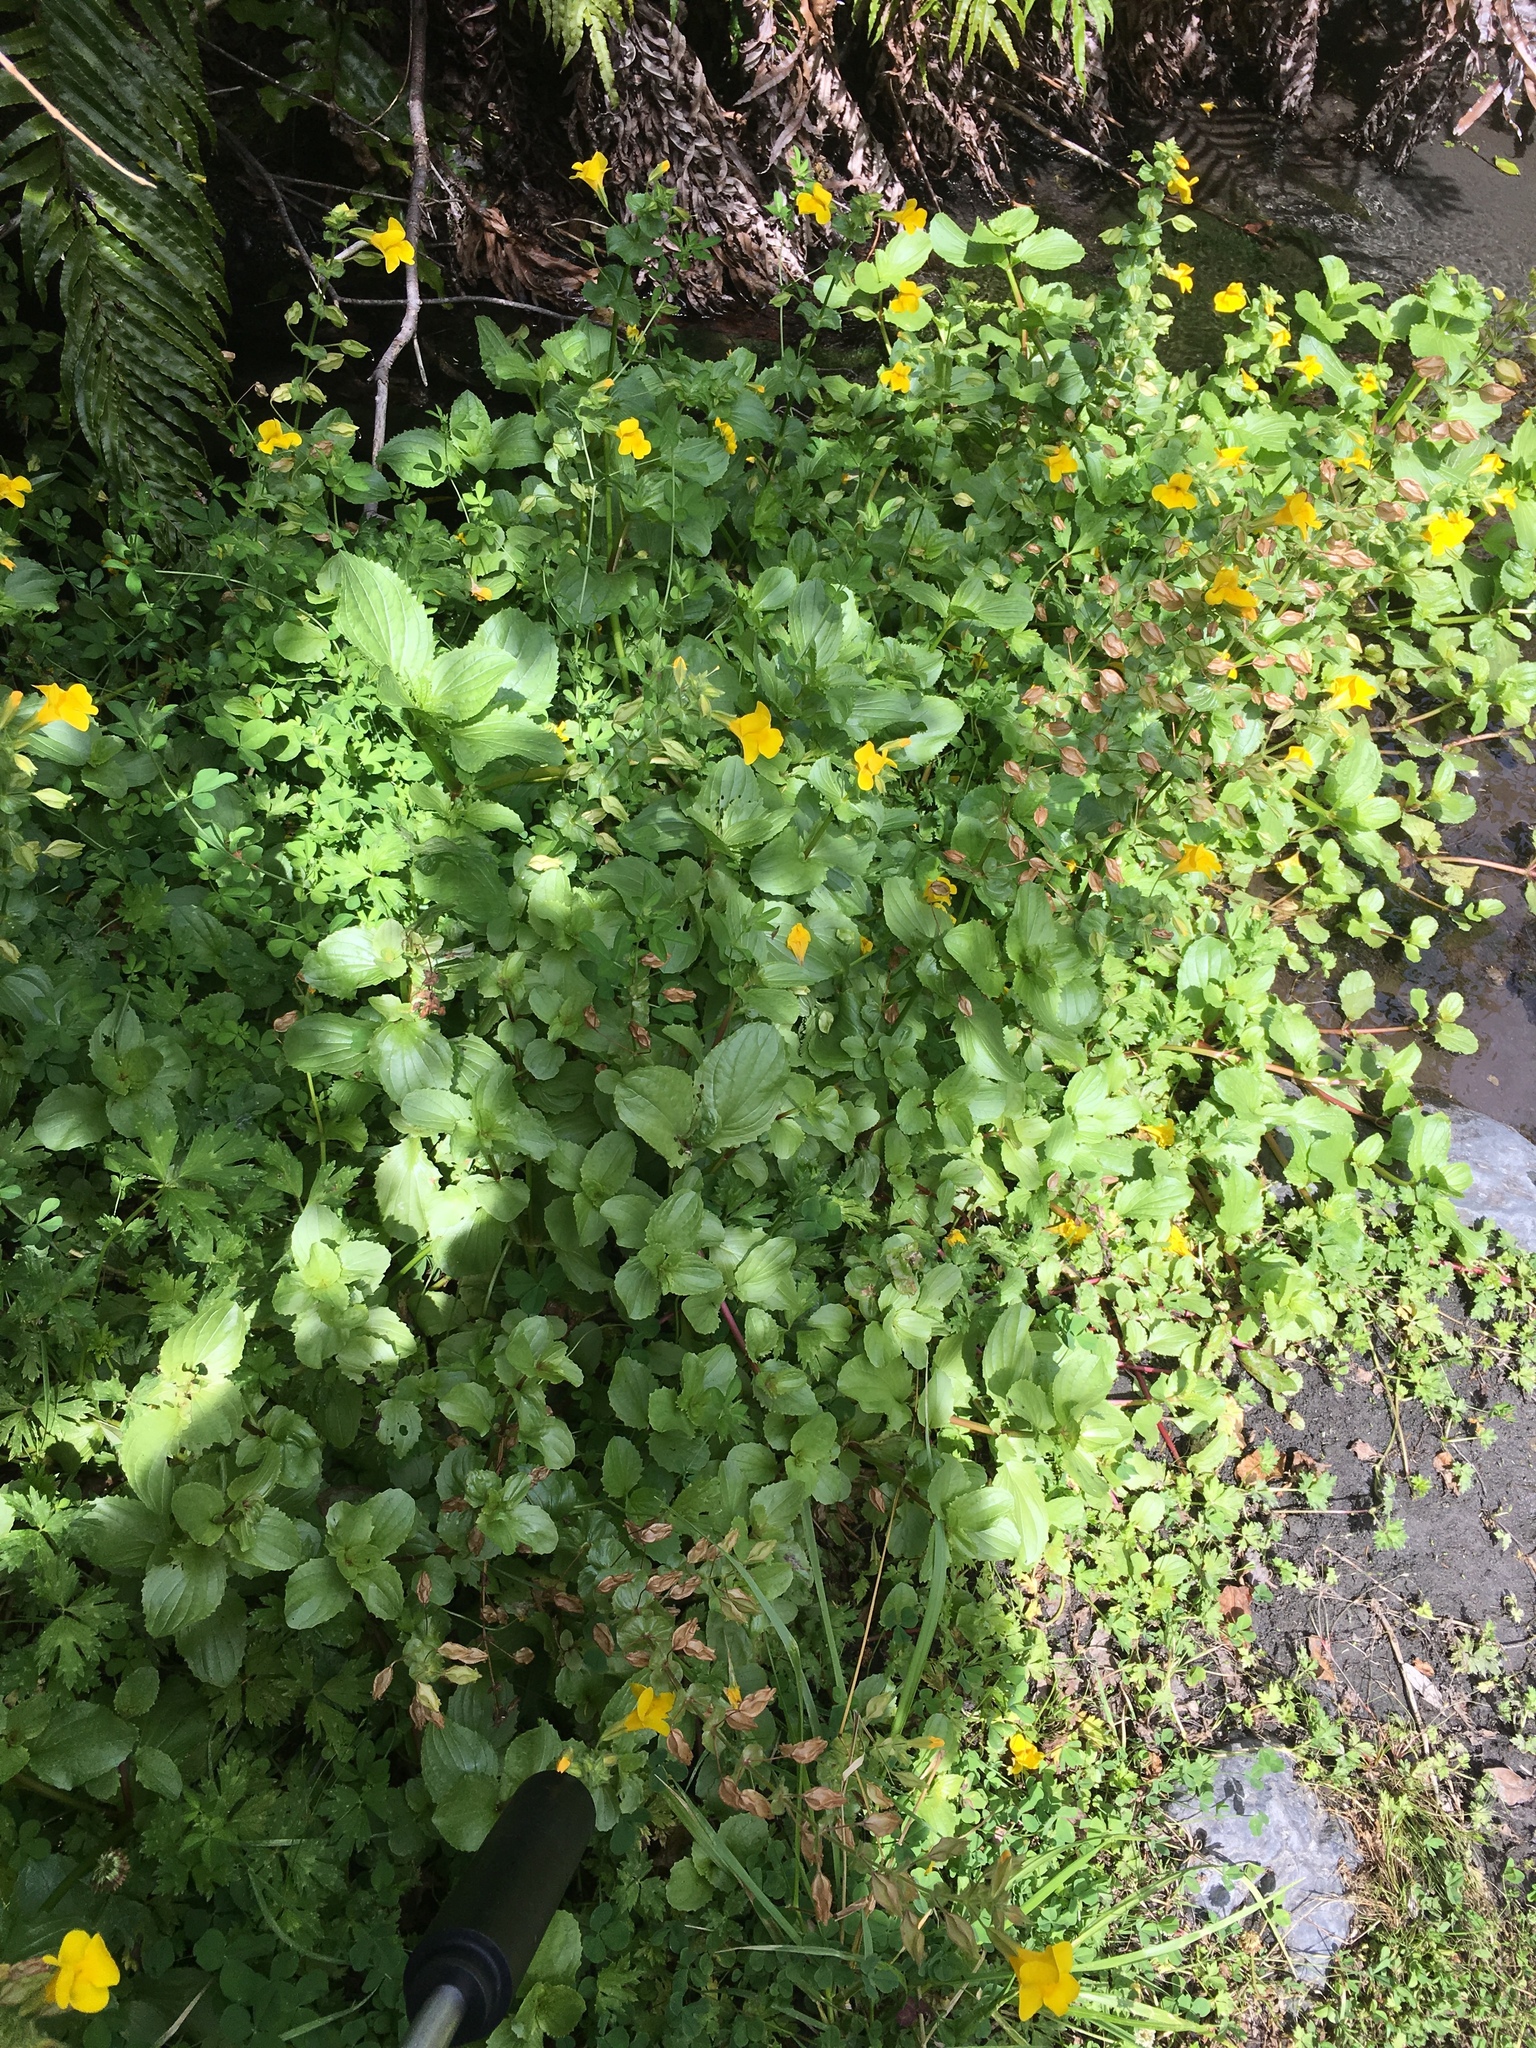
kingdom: Plantae
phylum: Tracheophyta
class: Magnoliopsida
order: Lamiales
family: Phrymaceae
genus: Erythranthe
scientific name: Erythranthe guttata
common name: Monkeyflower
